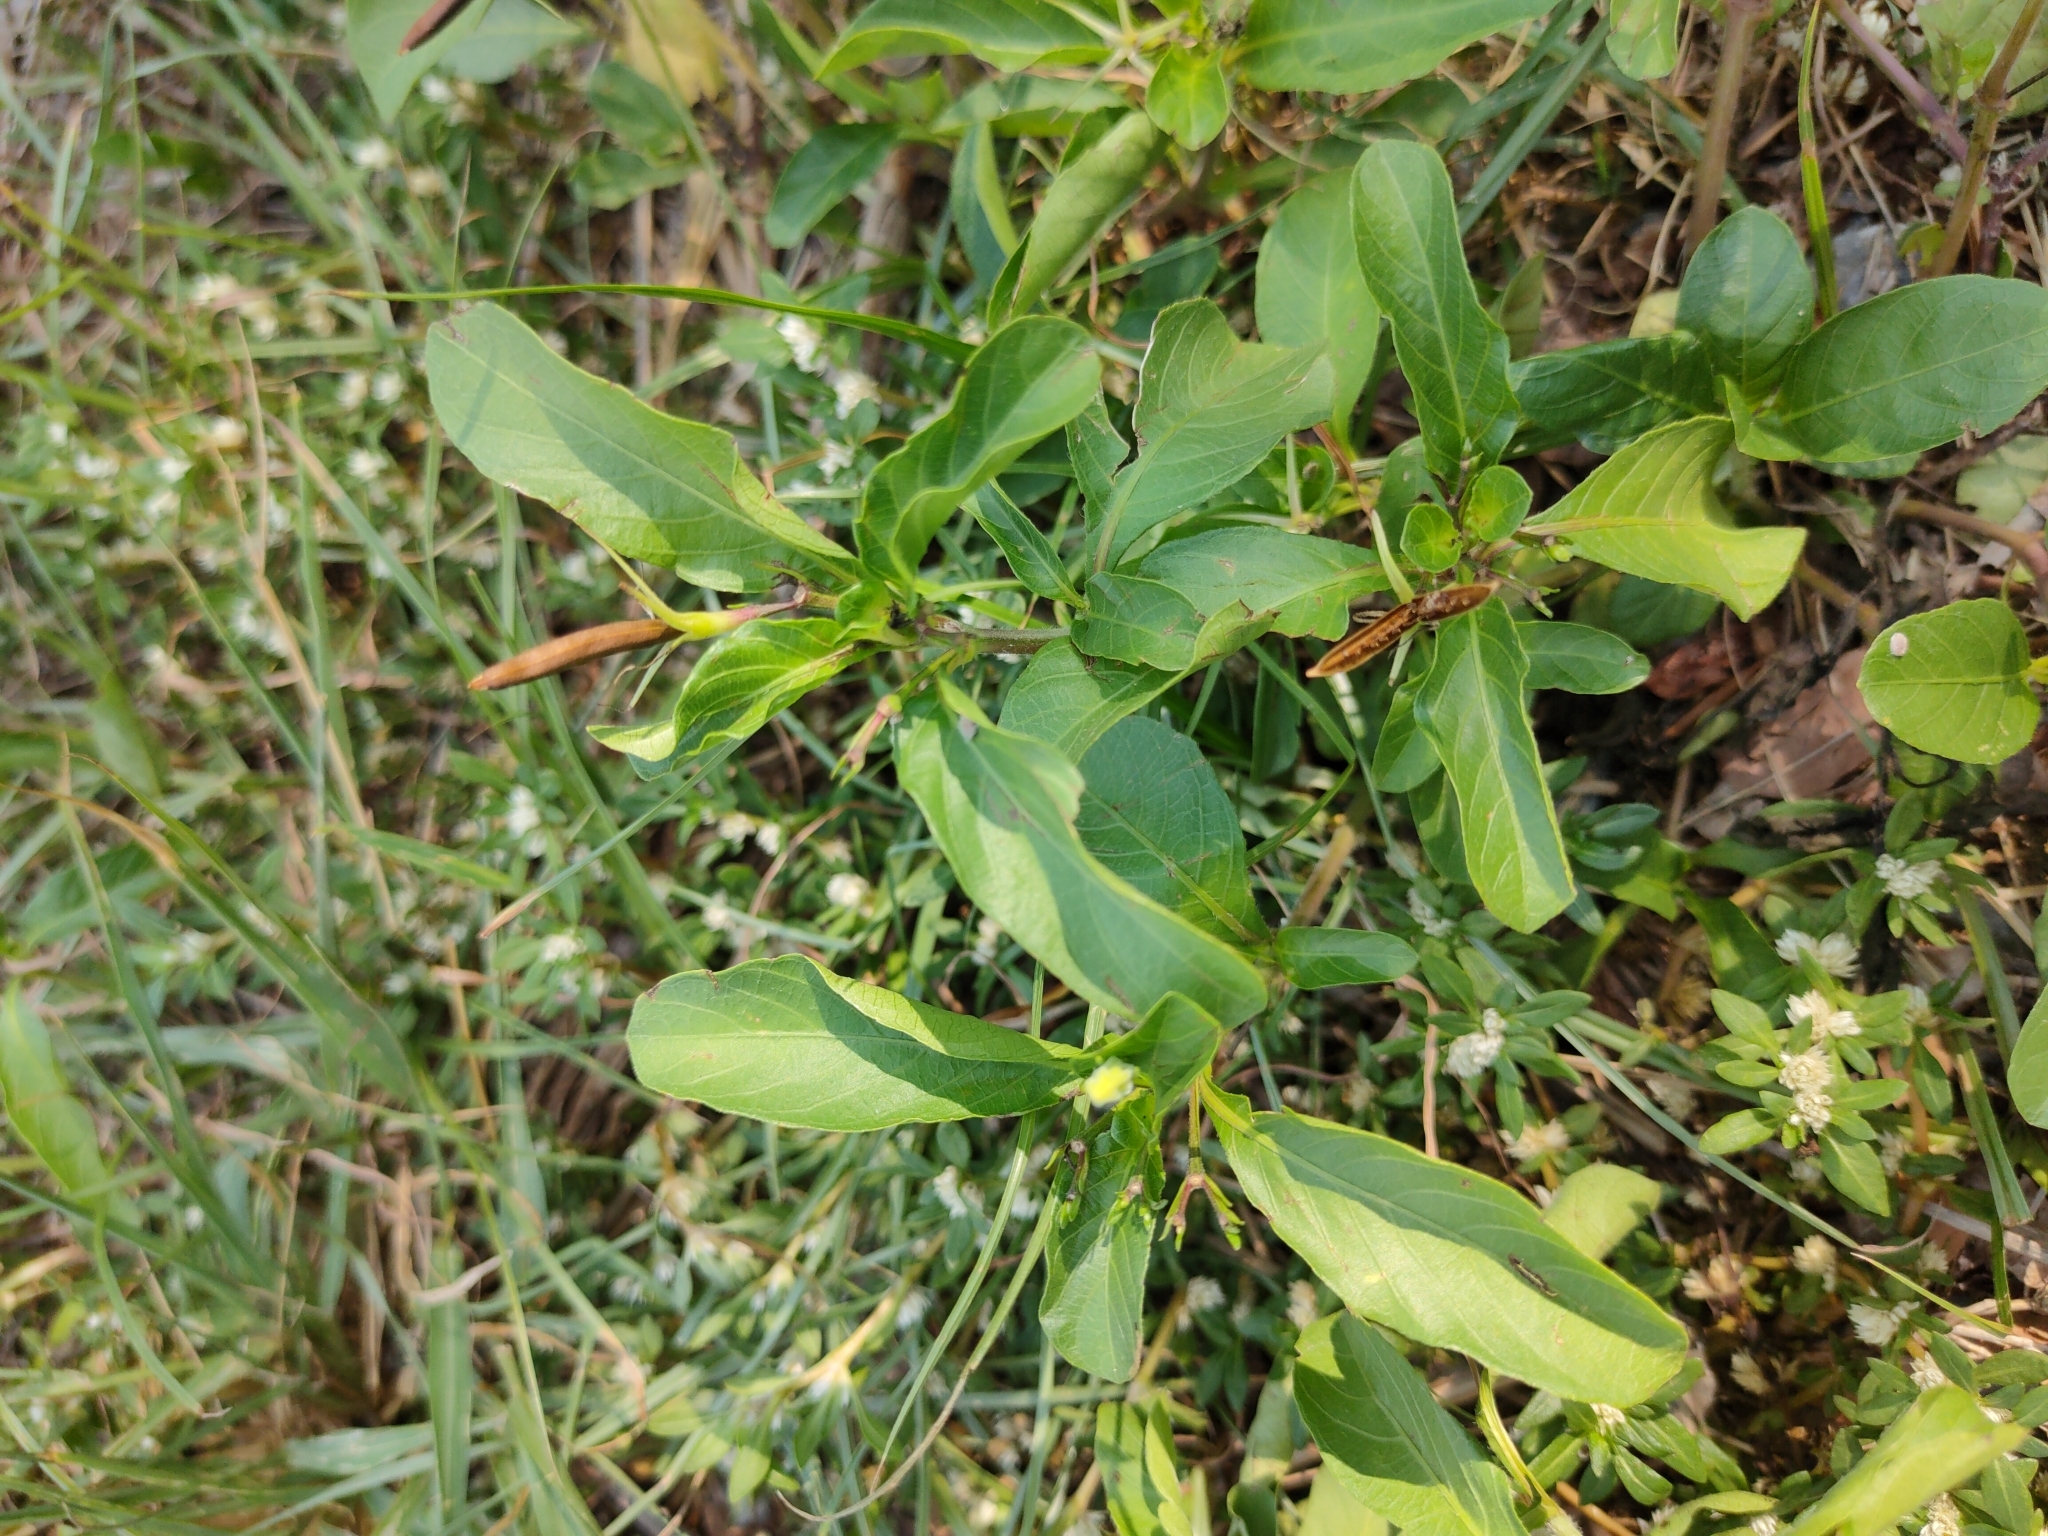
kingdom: Plantae
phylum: Tracheophyta
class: Magnoliopsida
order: Lamiales
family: Acanthaceae
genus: Ruellia
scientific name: Ruellia tuberosa
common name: Devil's bit
